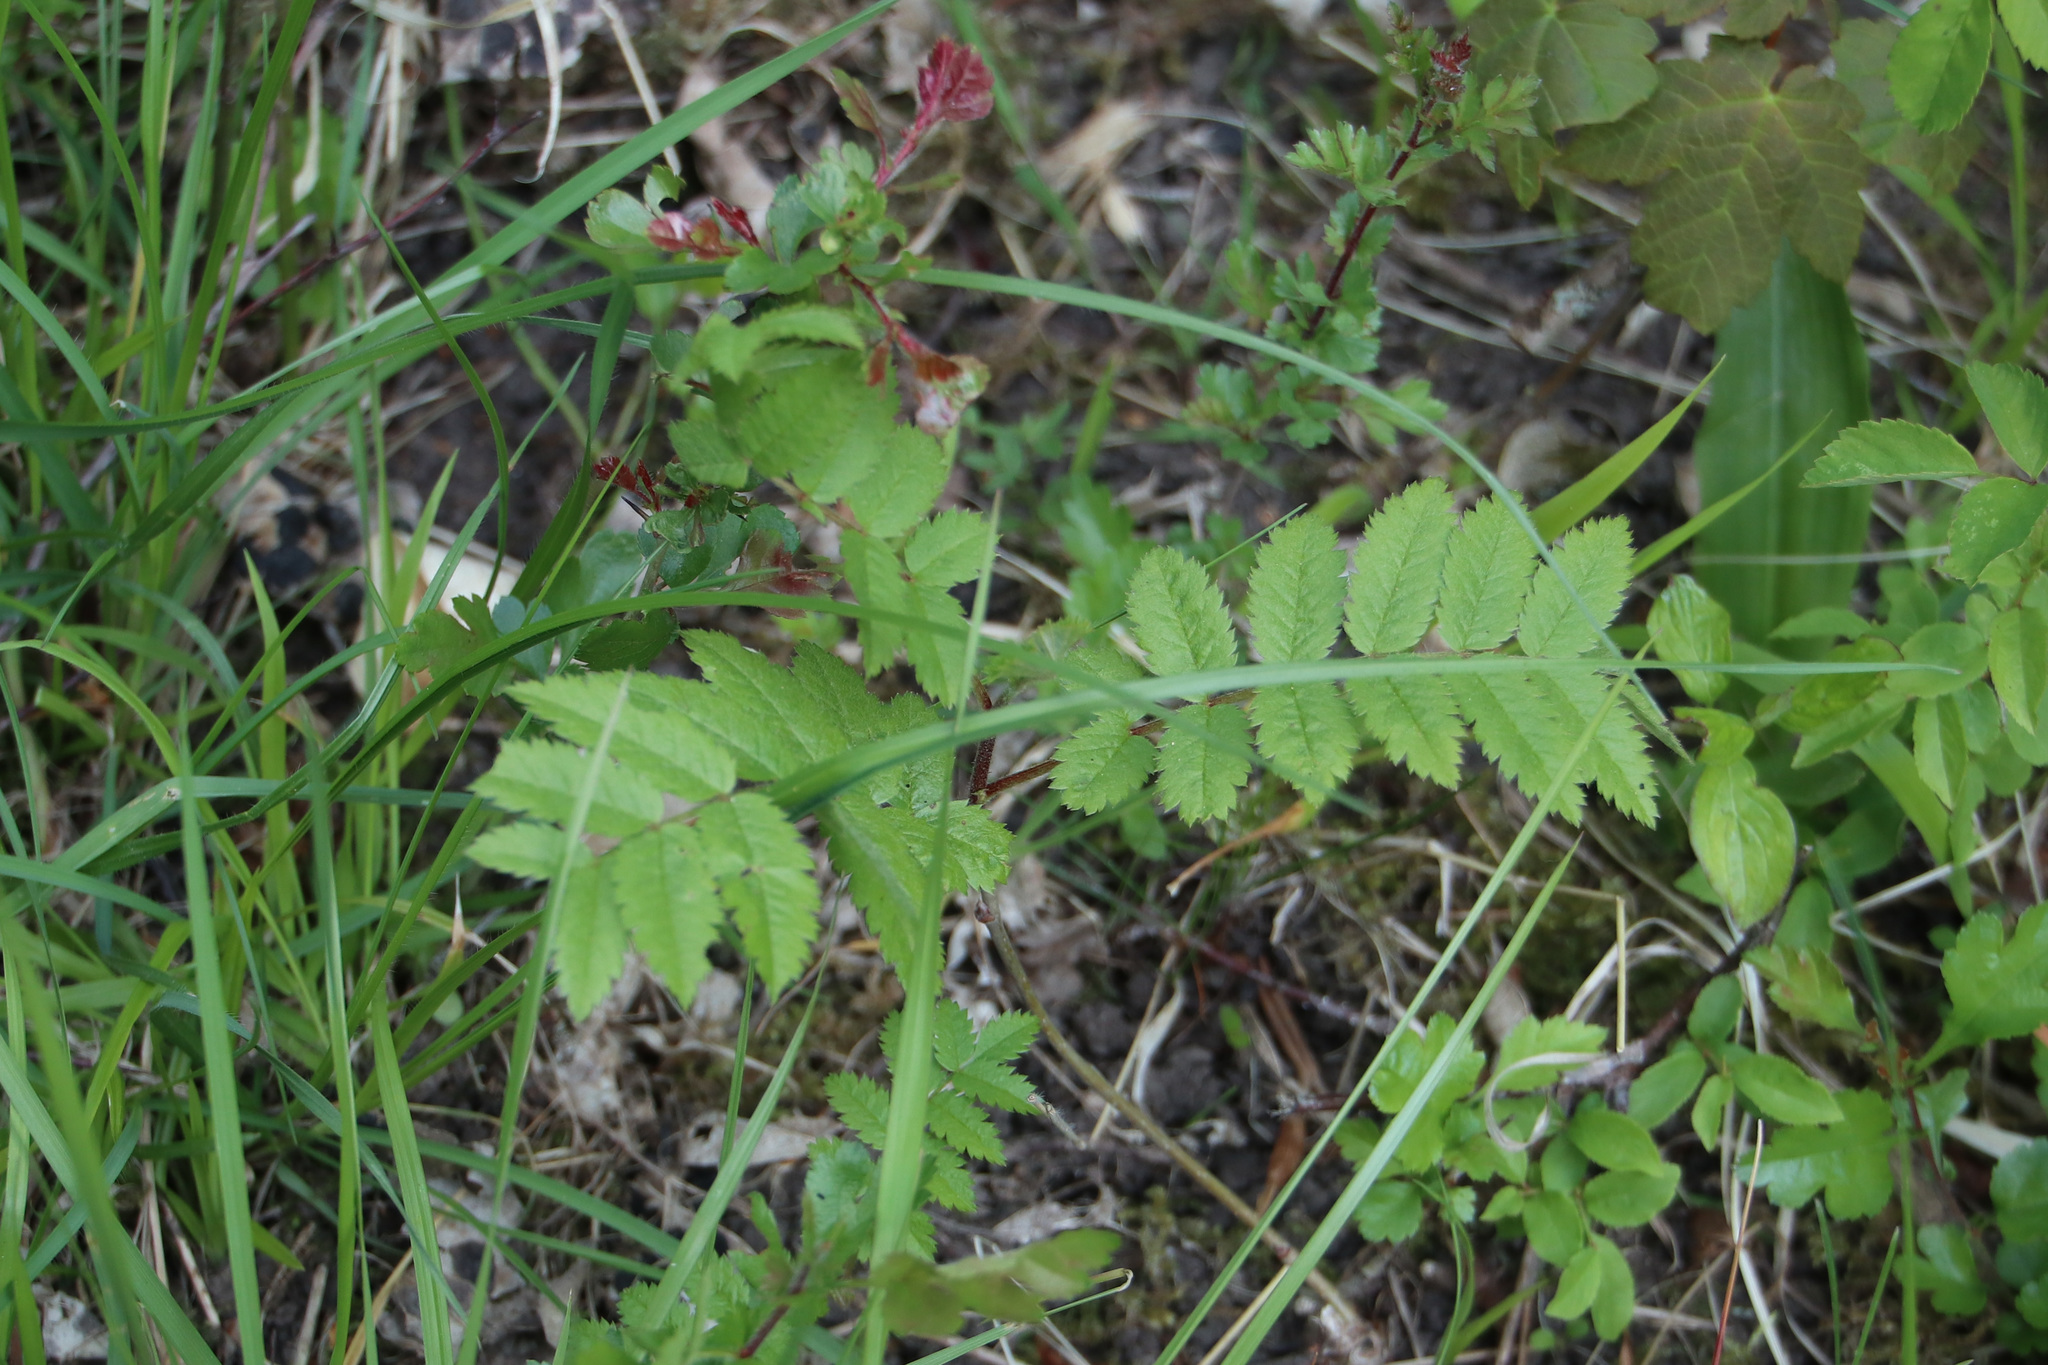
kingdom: Plantae
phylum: Tracheophyta
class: Magnoliopsida
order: Rosales
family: Rosaceae
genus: Sorbus
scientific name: Sorbus aucuparia
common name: Rowan
